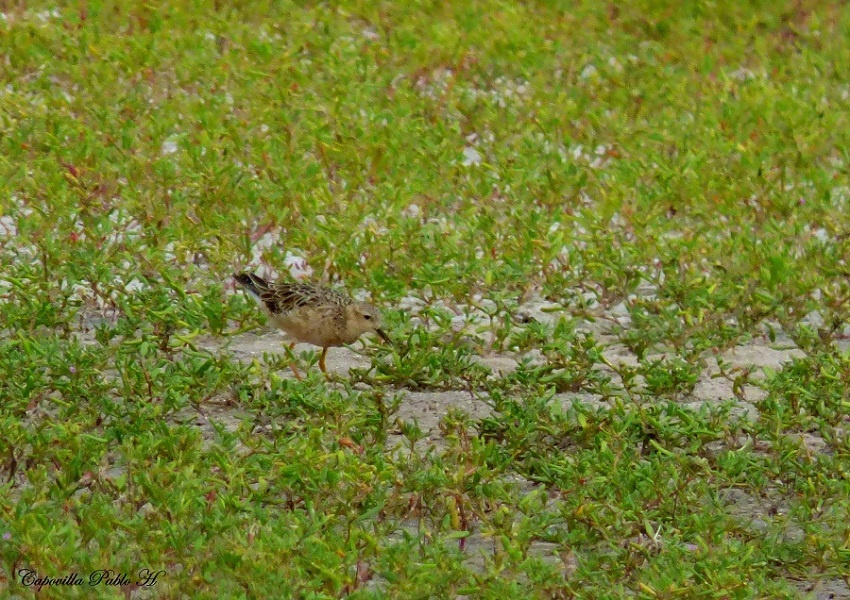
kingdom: Animalia
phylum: Chordata
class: Aves
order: Charadriiformes
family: Scolopacidae
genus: Calidris
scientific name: Calidris subruficollis
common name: Buff-breasted sandpiper
